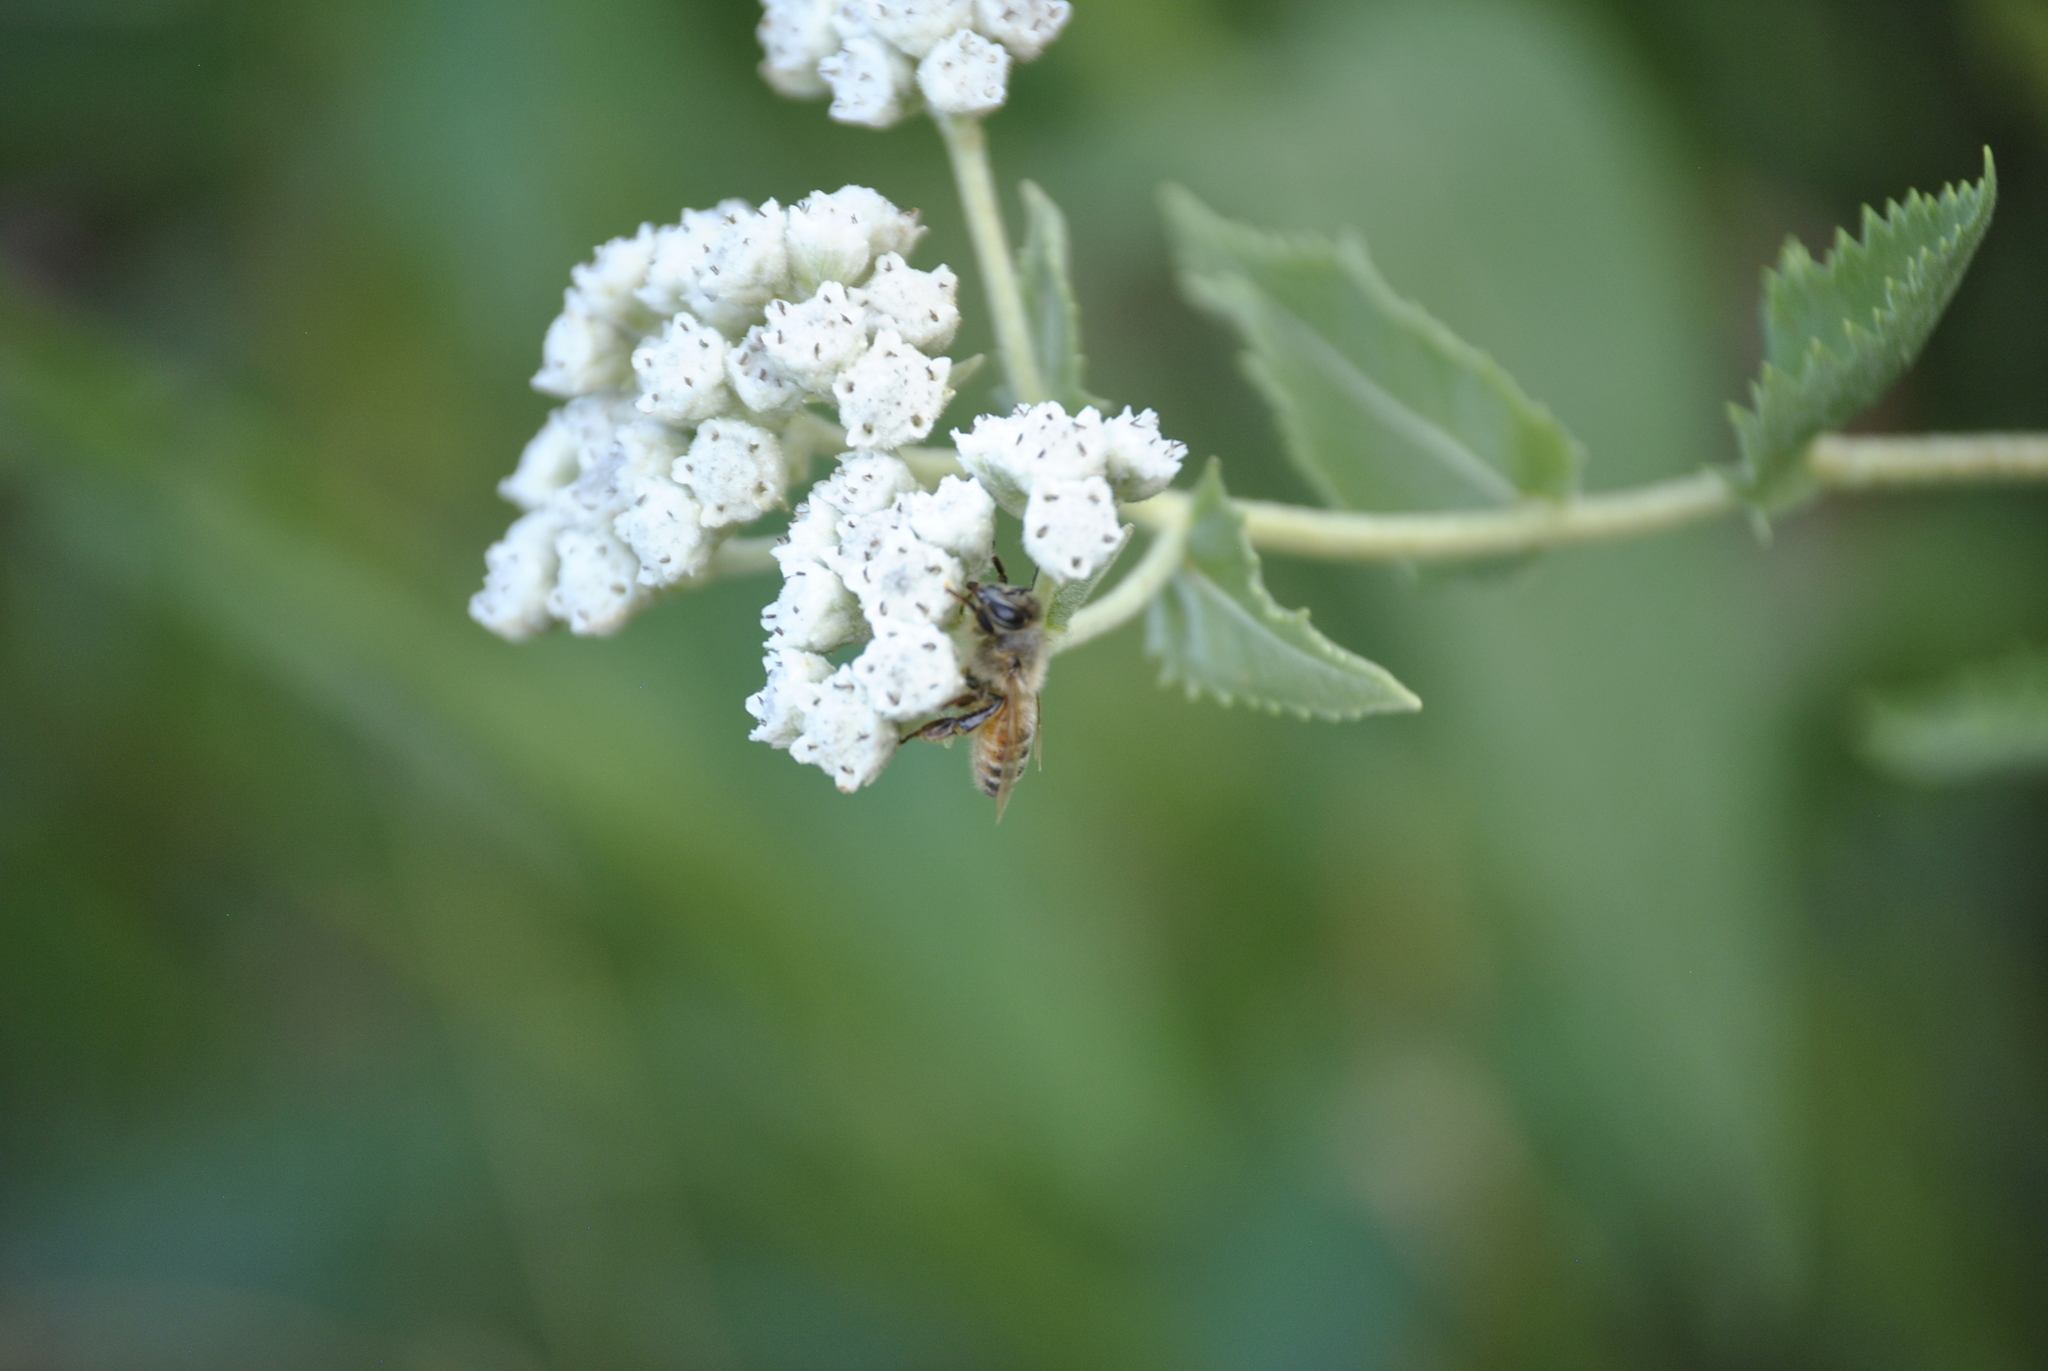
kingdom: Animalia
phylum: Arthropoda
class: Insecta
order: Hymenoptera
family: Apidae
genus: Apis
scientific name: Apis mellifera
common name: Honey bee
